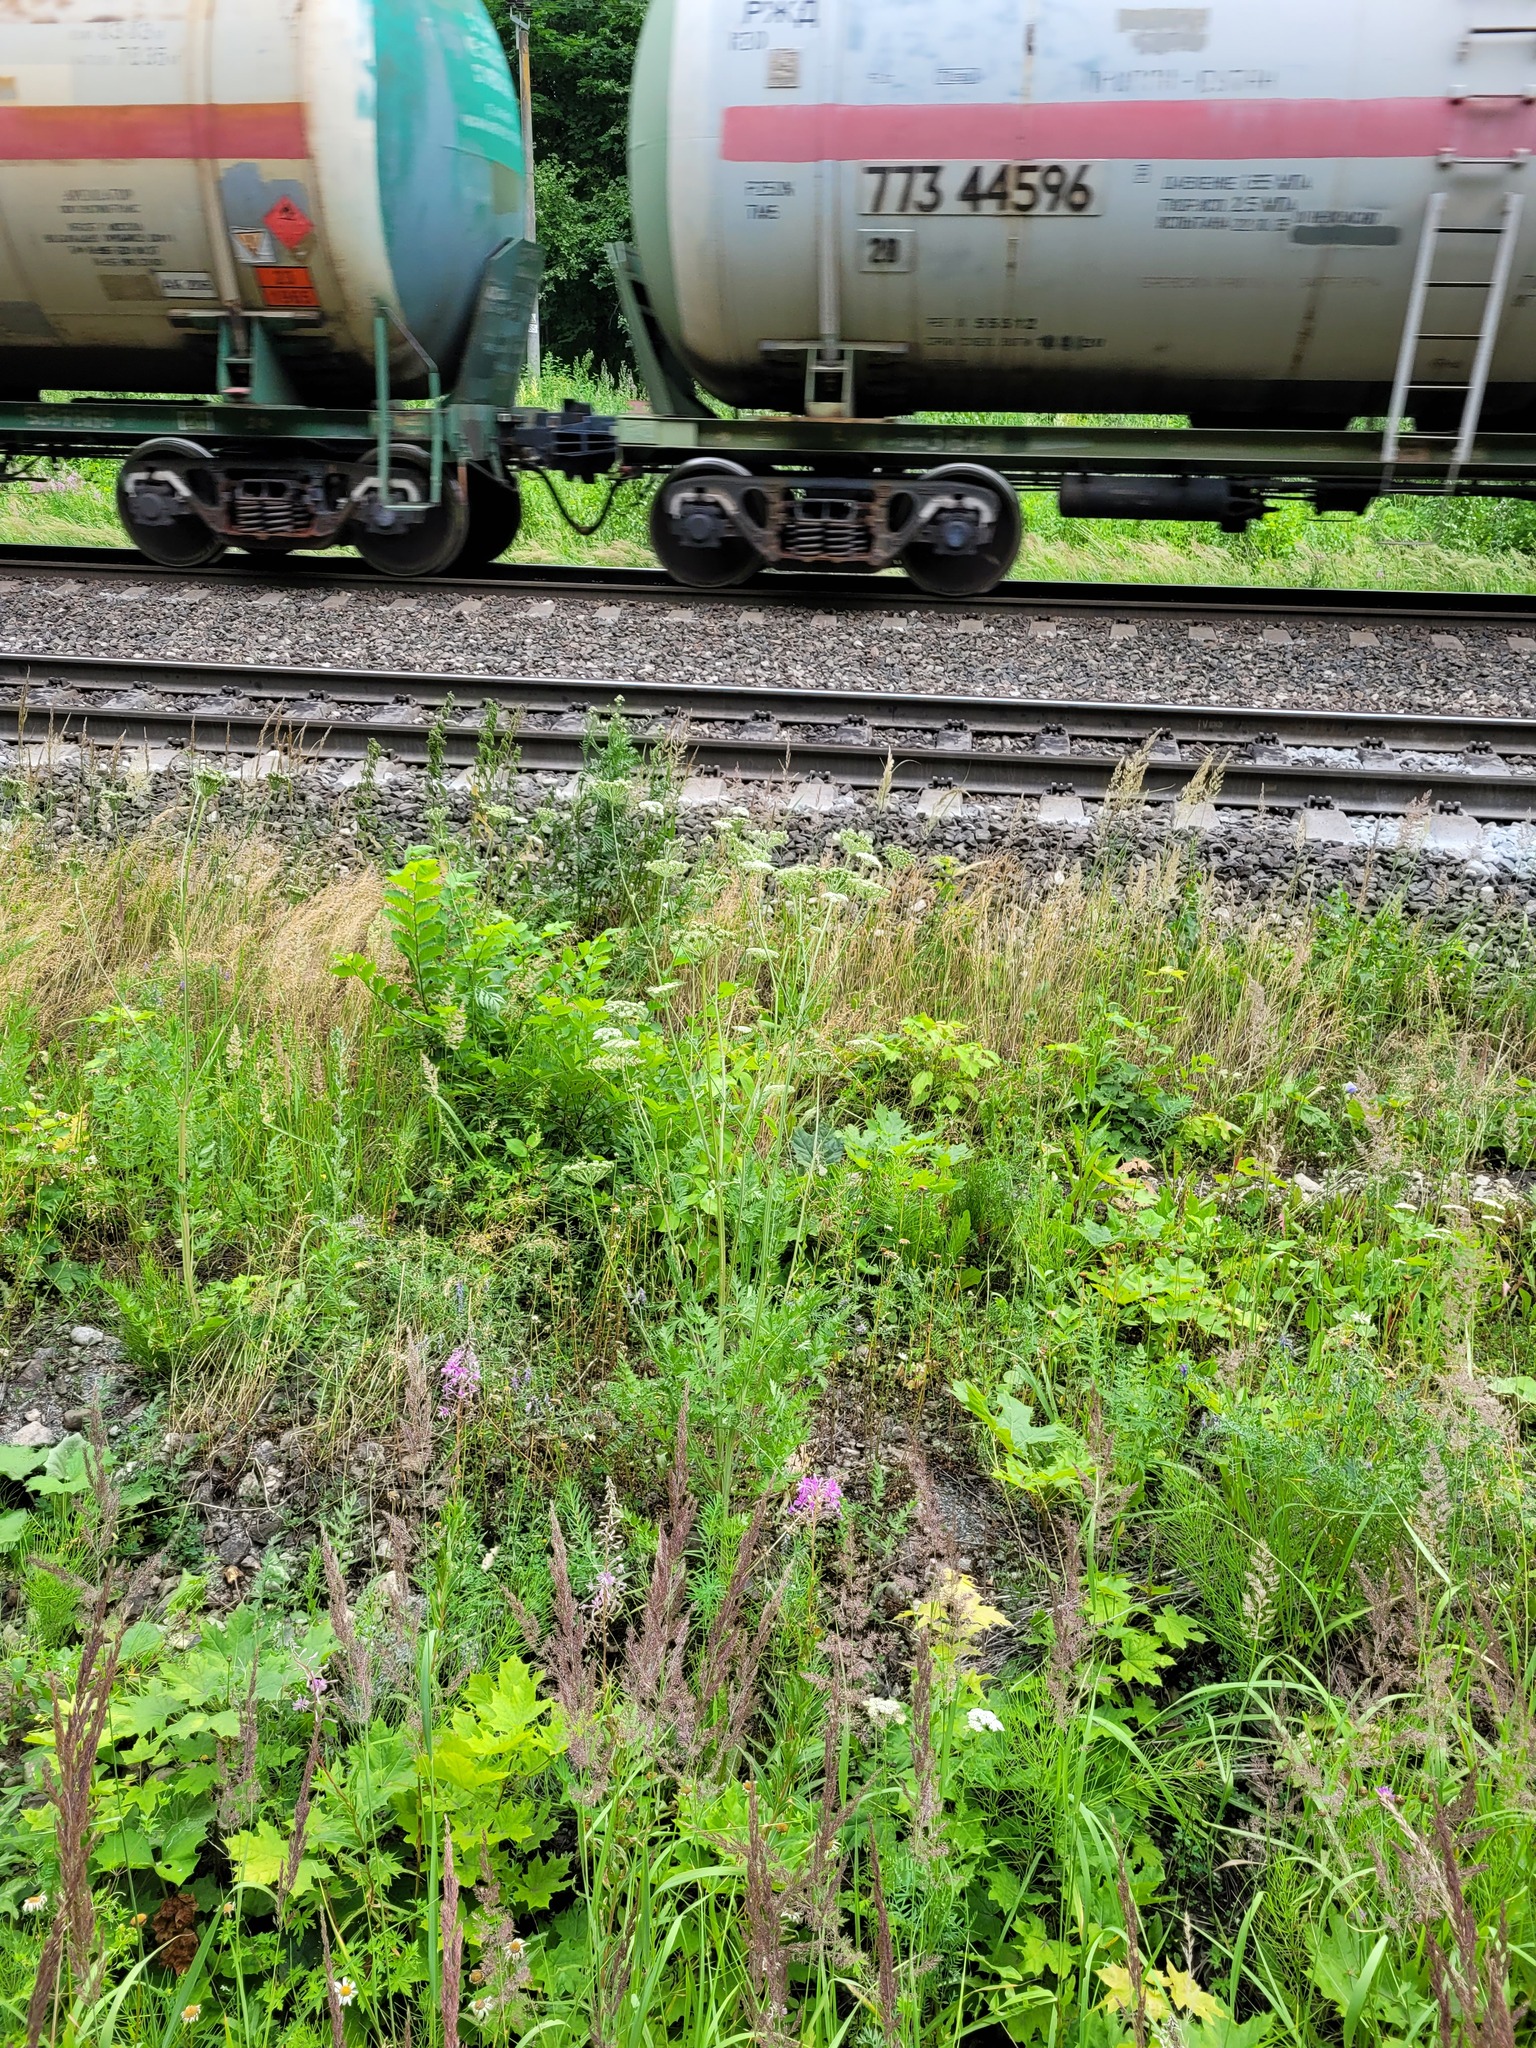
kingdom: Plantae
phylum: Tracheophyta
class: Magnoliopsida
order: Apiales
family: Apiaceae
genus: Seseli
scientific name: Seseli libanotis
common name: Mooncarrot
